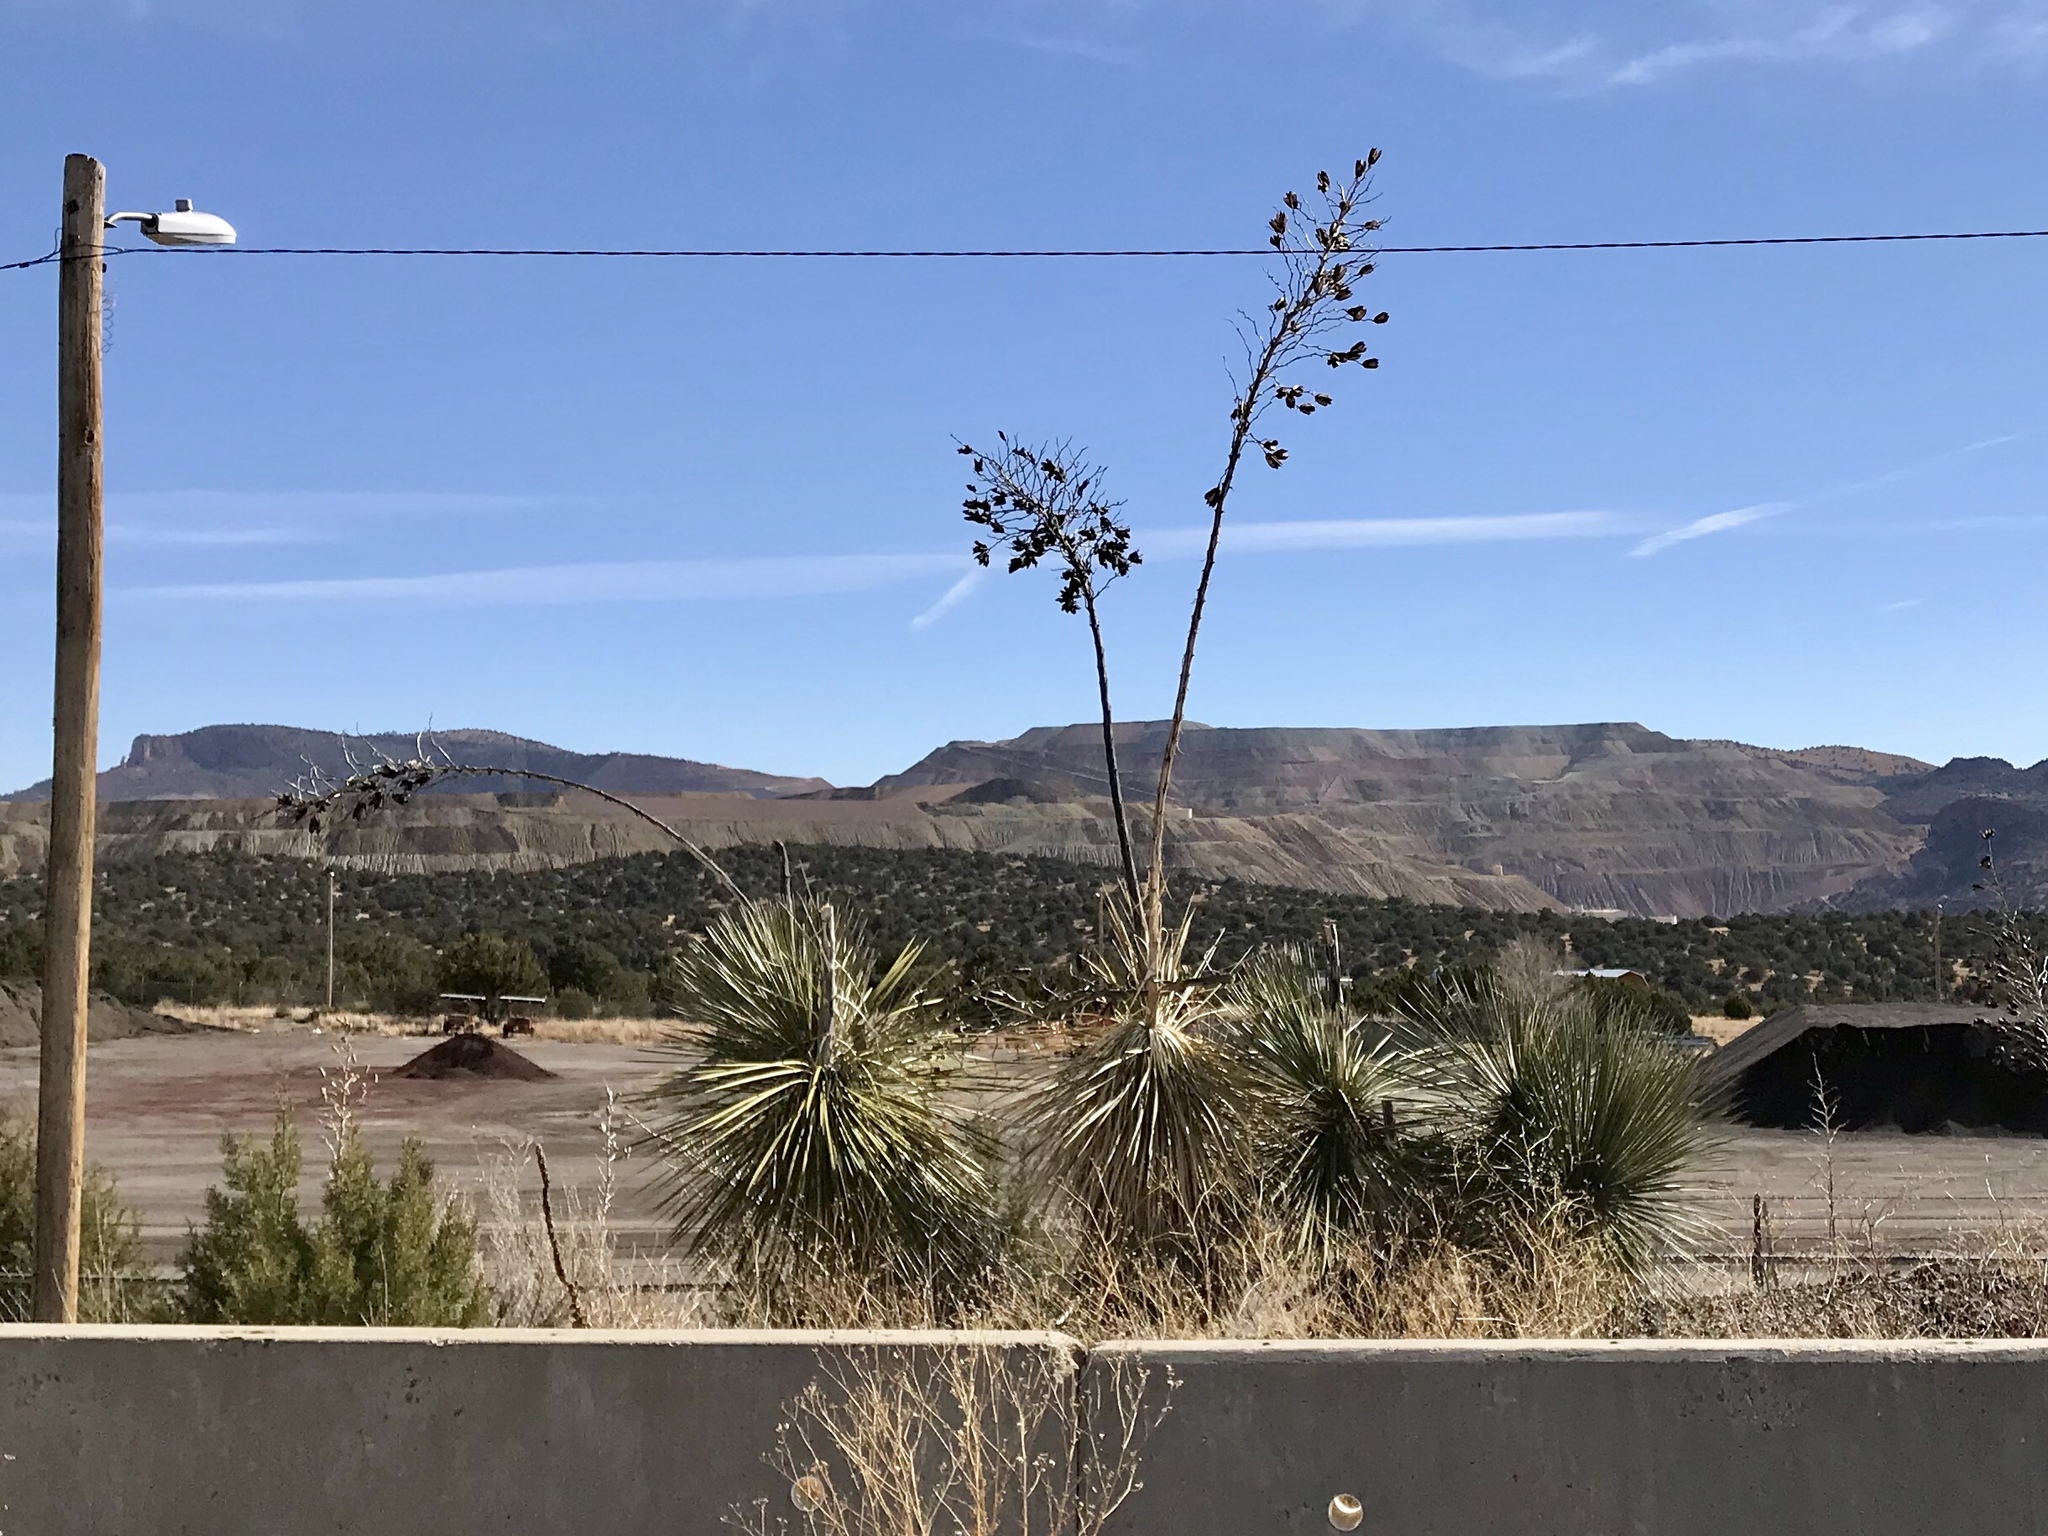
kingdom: Plantae
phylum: Tracheophyta
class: Liliopsida
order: Asparagales
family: Asparagaceae
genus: Yucca
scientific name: Yucca elata
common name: Palmella
